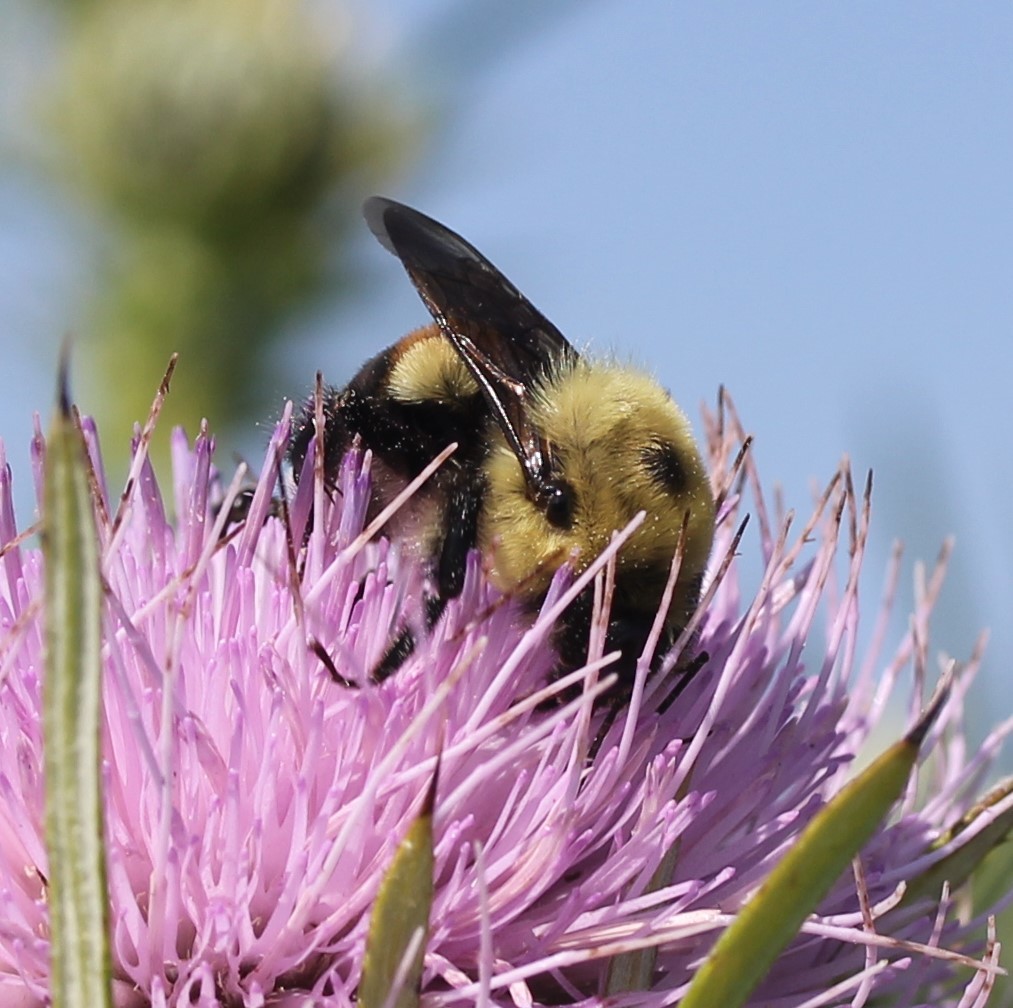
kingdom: Animalia
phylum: Arthropoda
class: Insecta
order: Hymenoptera
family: Apidae
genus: Bombus
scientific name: Bombus griseocollis
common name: Brown-belted bumble bee
